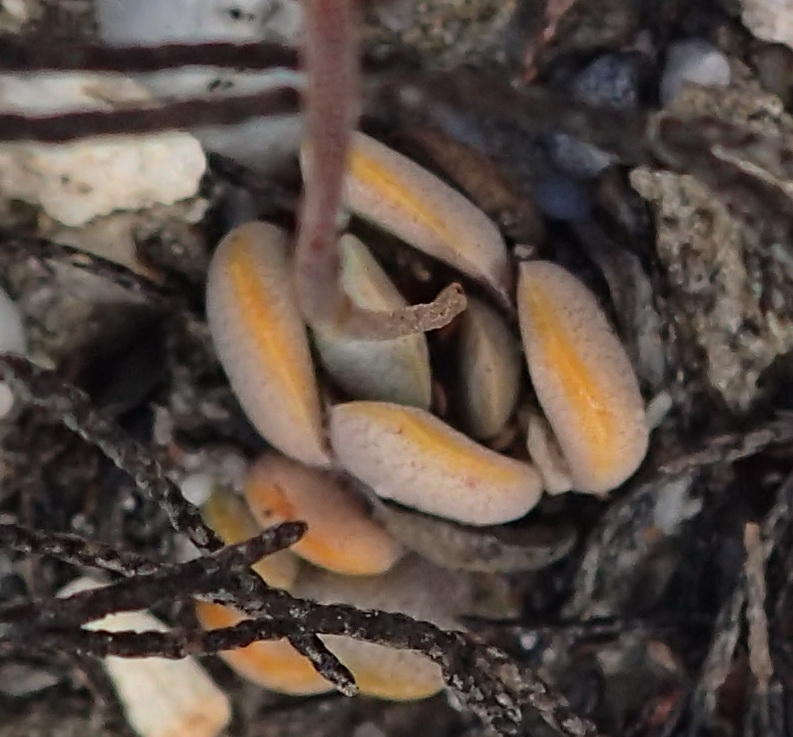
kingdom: Plantae
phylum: Tracheophyta
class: Magnoliopsida
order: Saxifragales
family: Crassulaceae
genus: Crassula
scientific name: Crassula tecta
